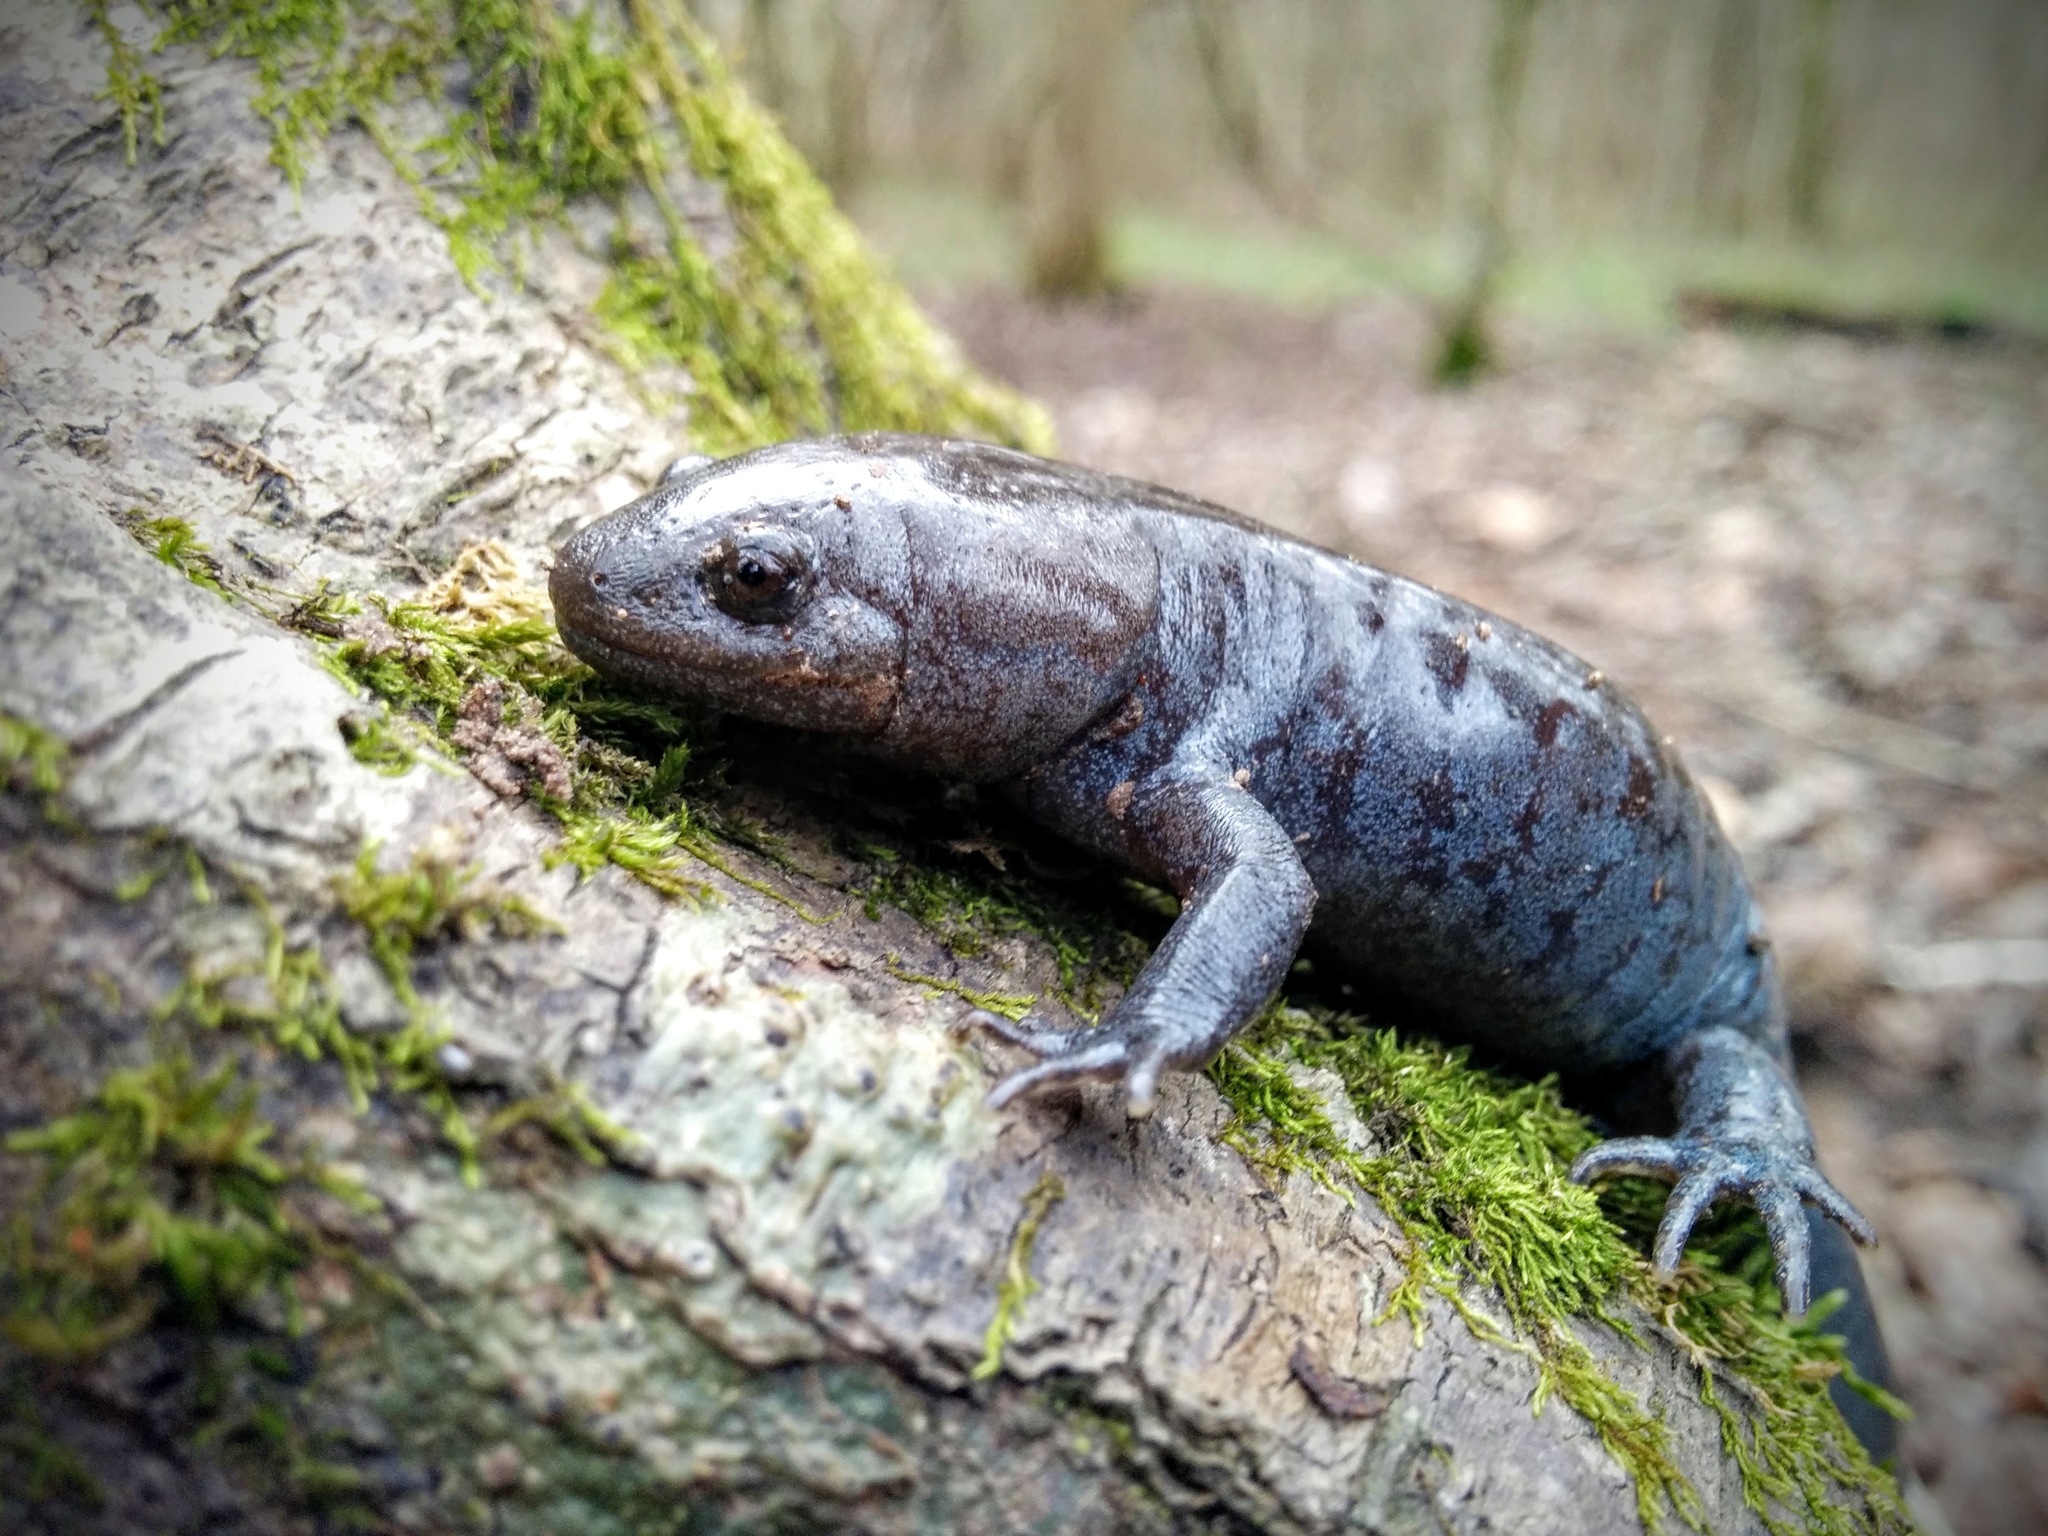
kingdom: Animalia
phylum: Chordata
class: Amphibia
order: Caudata
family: Ambystomatidae
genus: Ambystoma
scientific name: Ambystoma talpoideum
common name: Mole salamander
